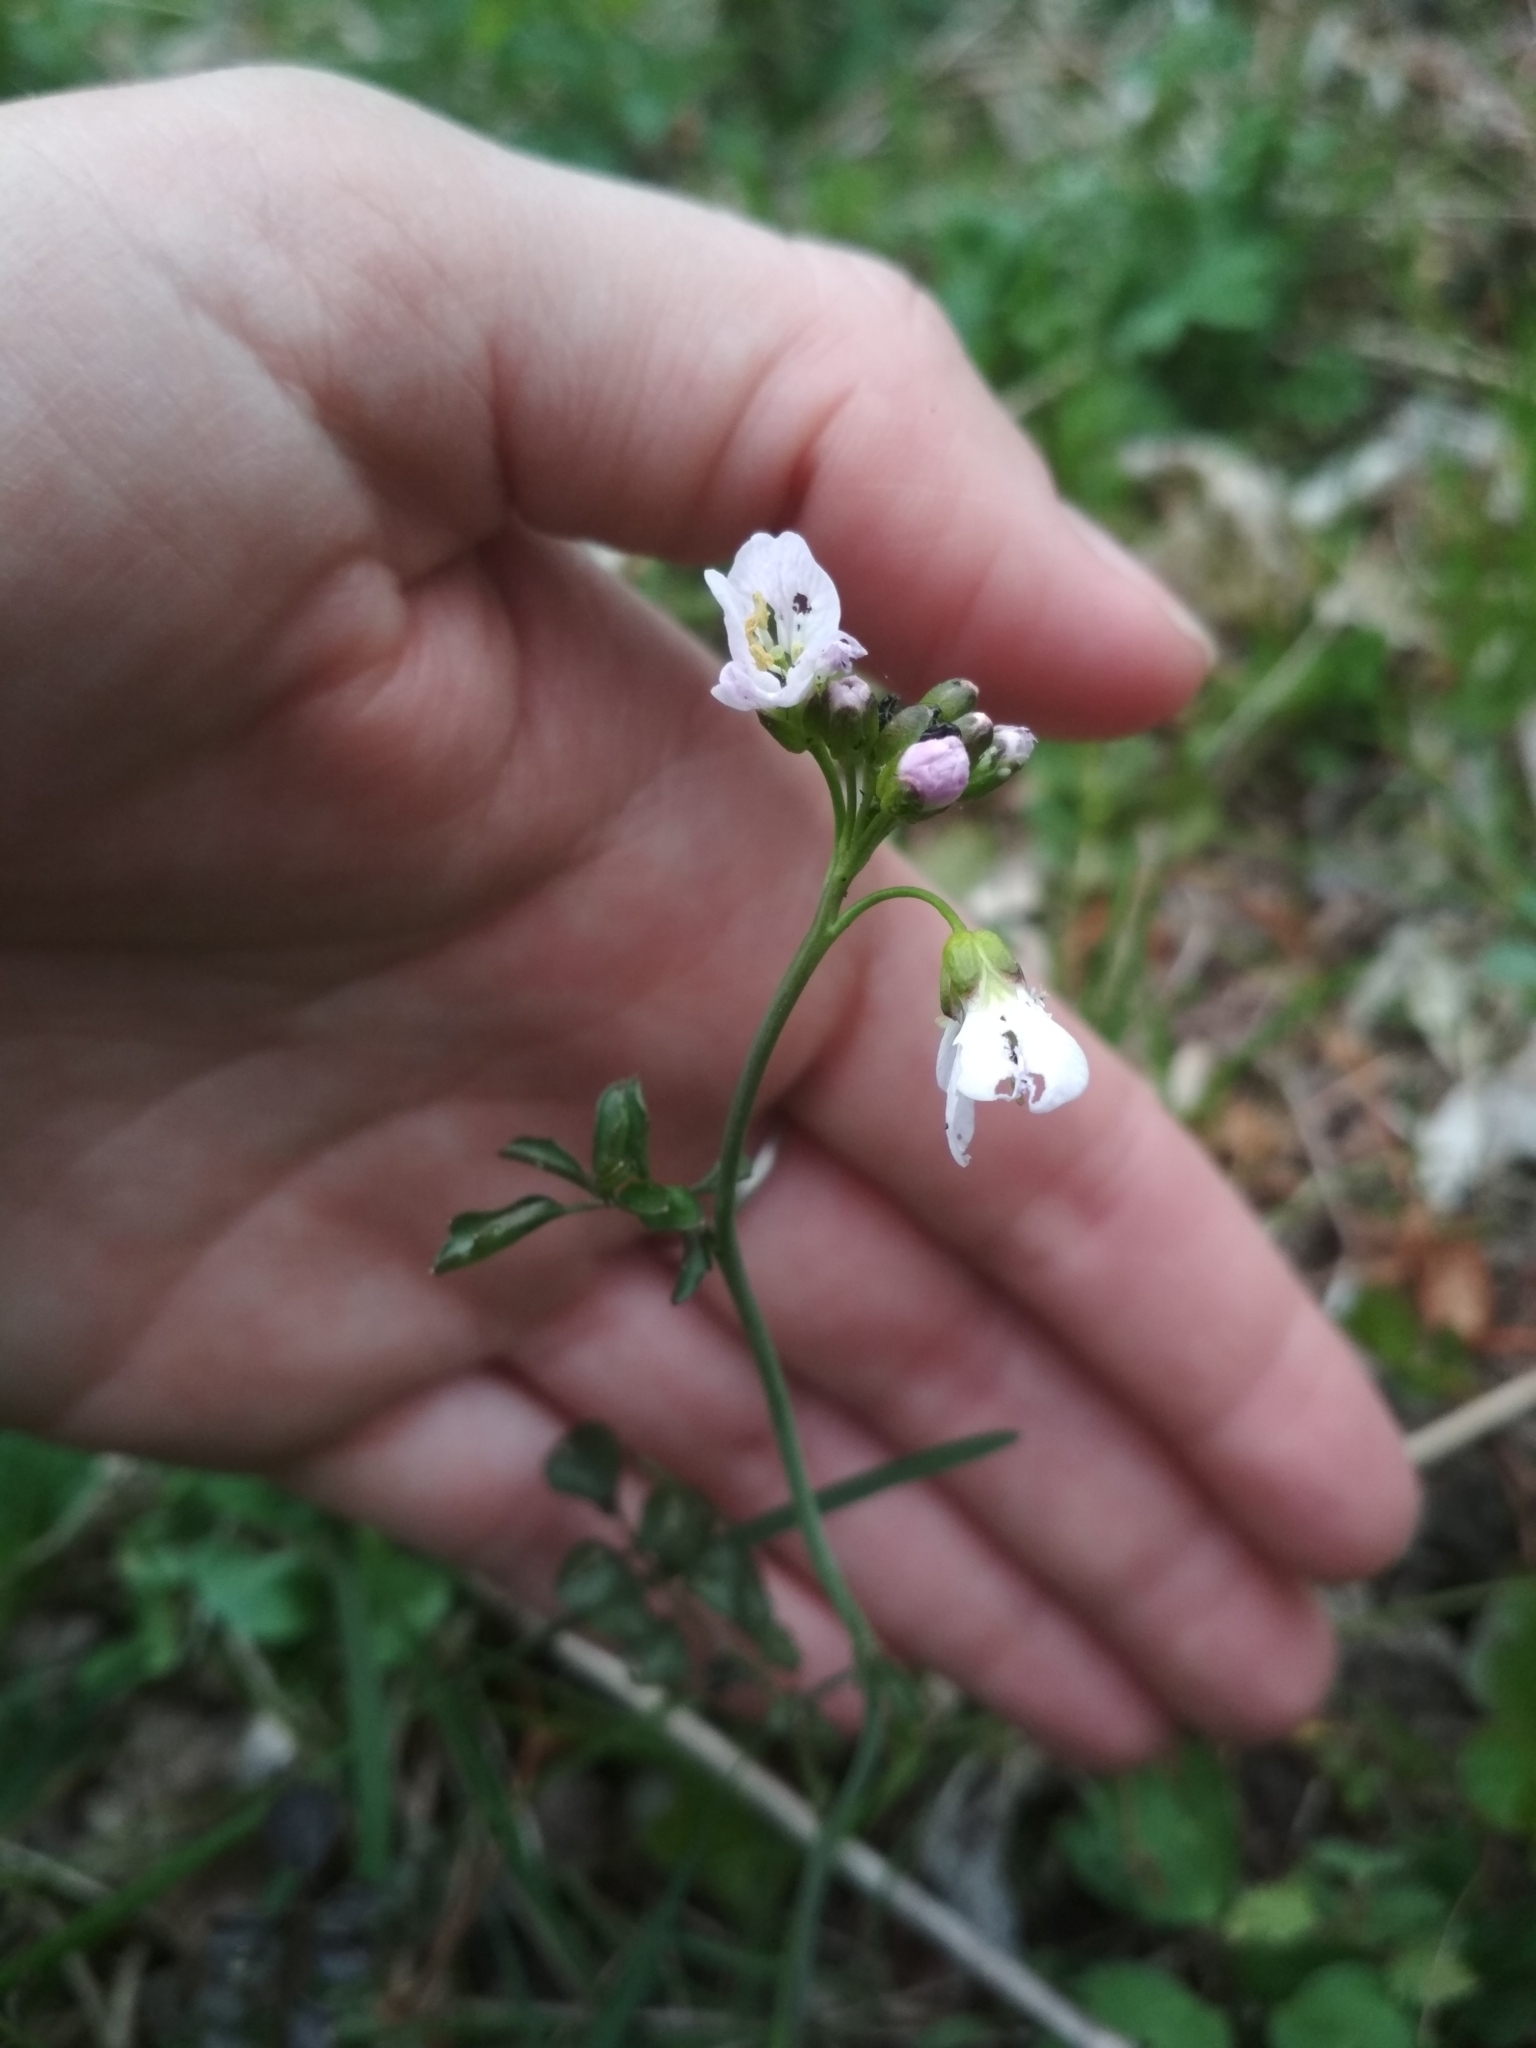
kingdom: Plantae
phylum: Tracheophyta
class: Magnoliopsida
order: Brassicales
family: Brassicaceae
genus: Cardamine
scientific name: Cardamine dentata
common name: Toothed bittercress
